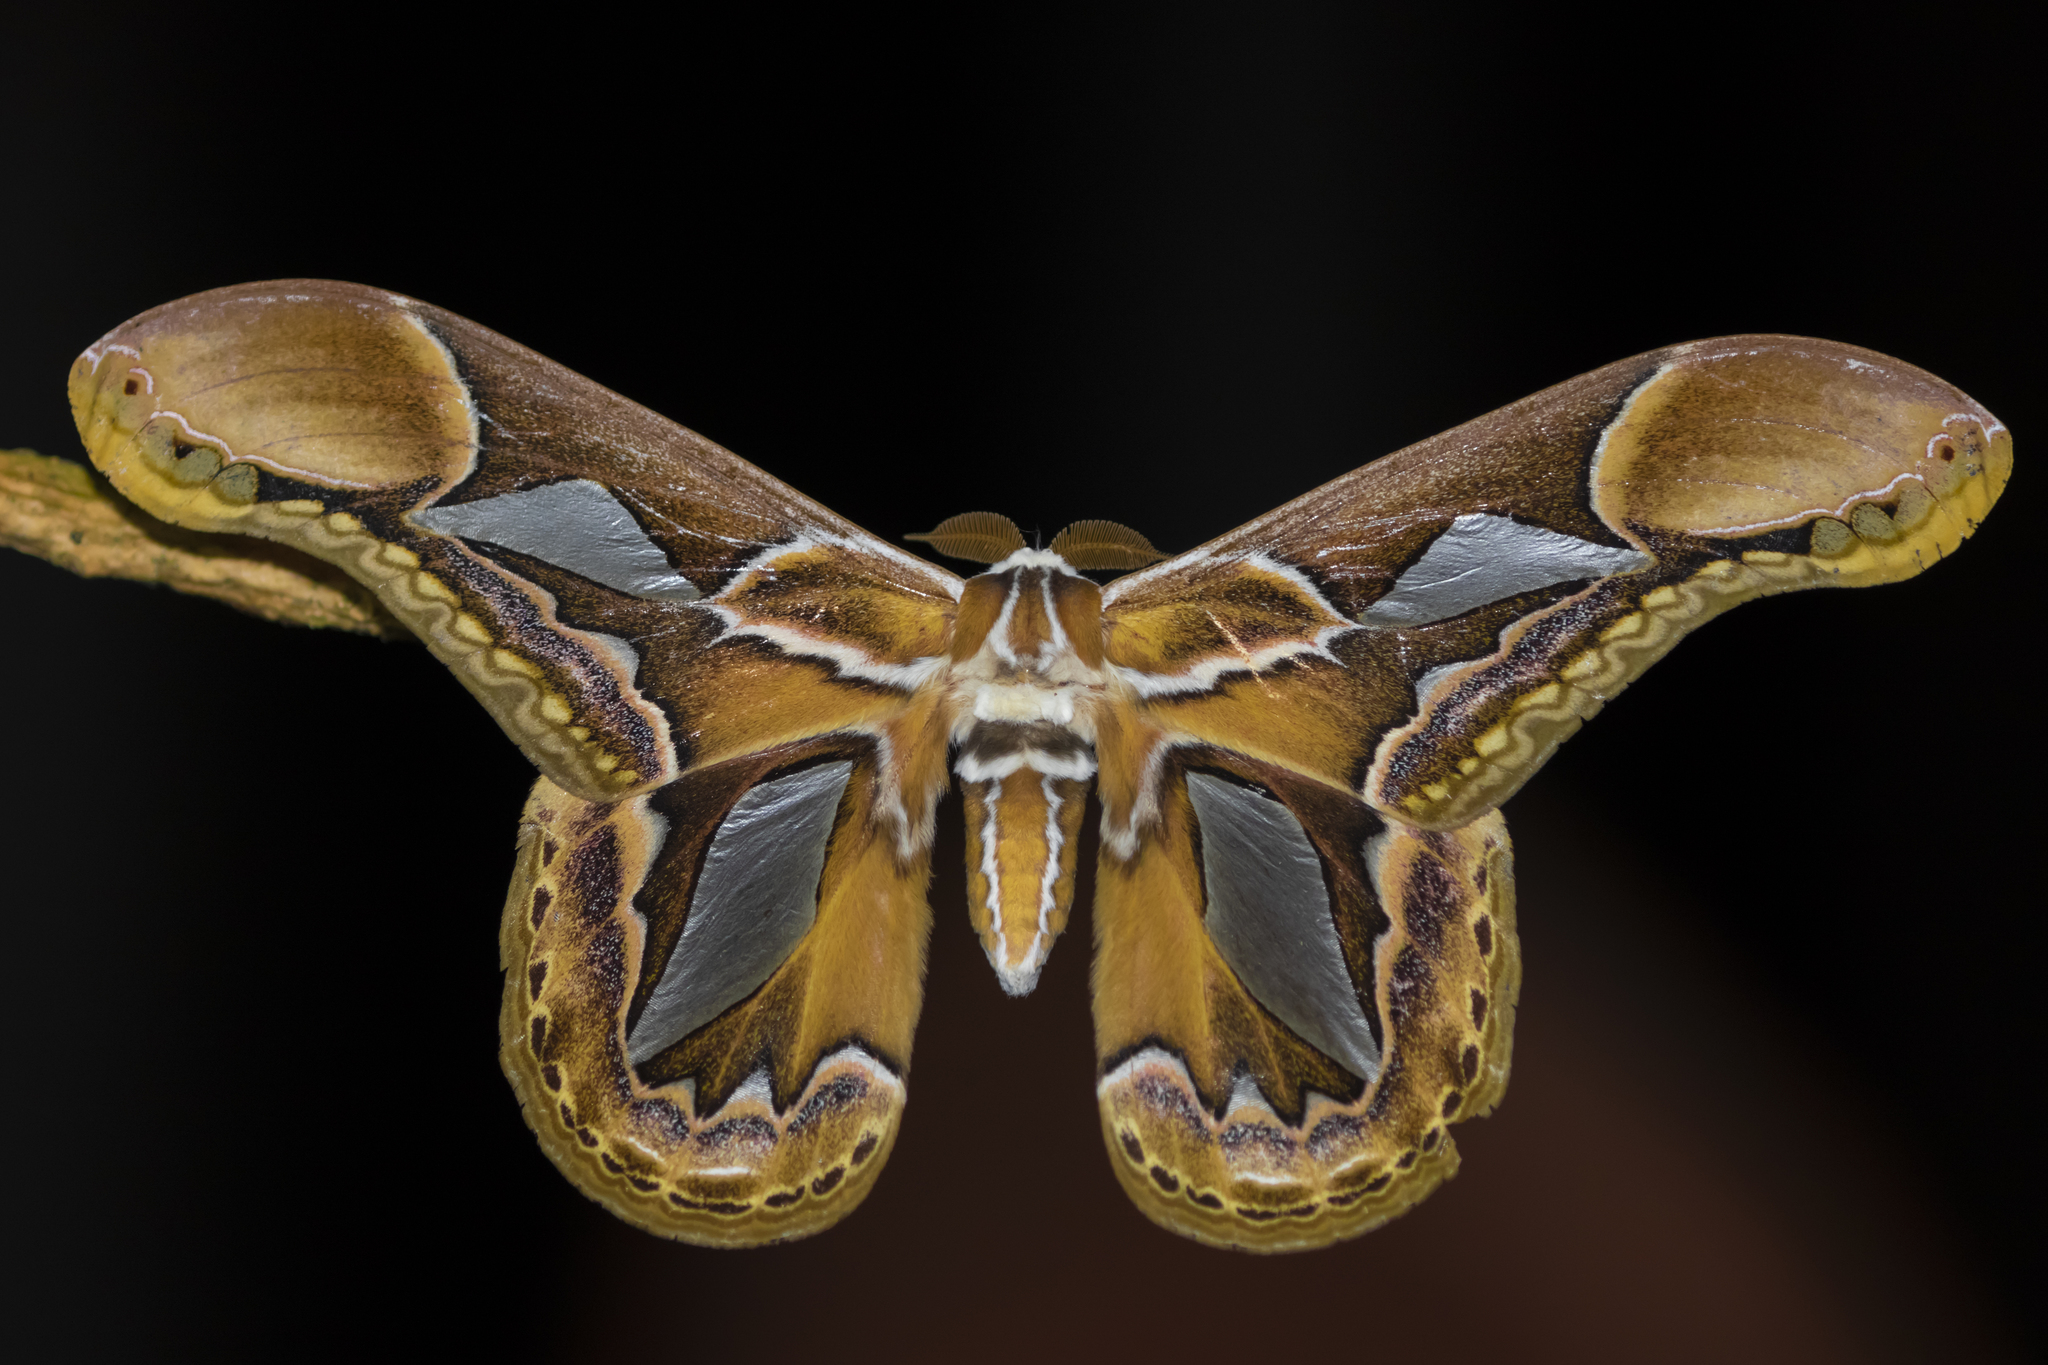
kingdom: Animalia
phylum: Arthropoda
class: Insecta
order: Lepidoptera
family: Saturniidae
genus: Rothschildia
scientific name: Rothschildia hopfferi
